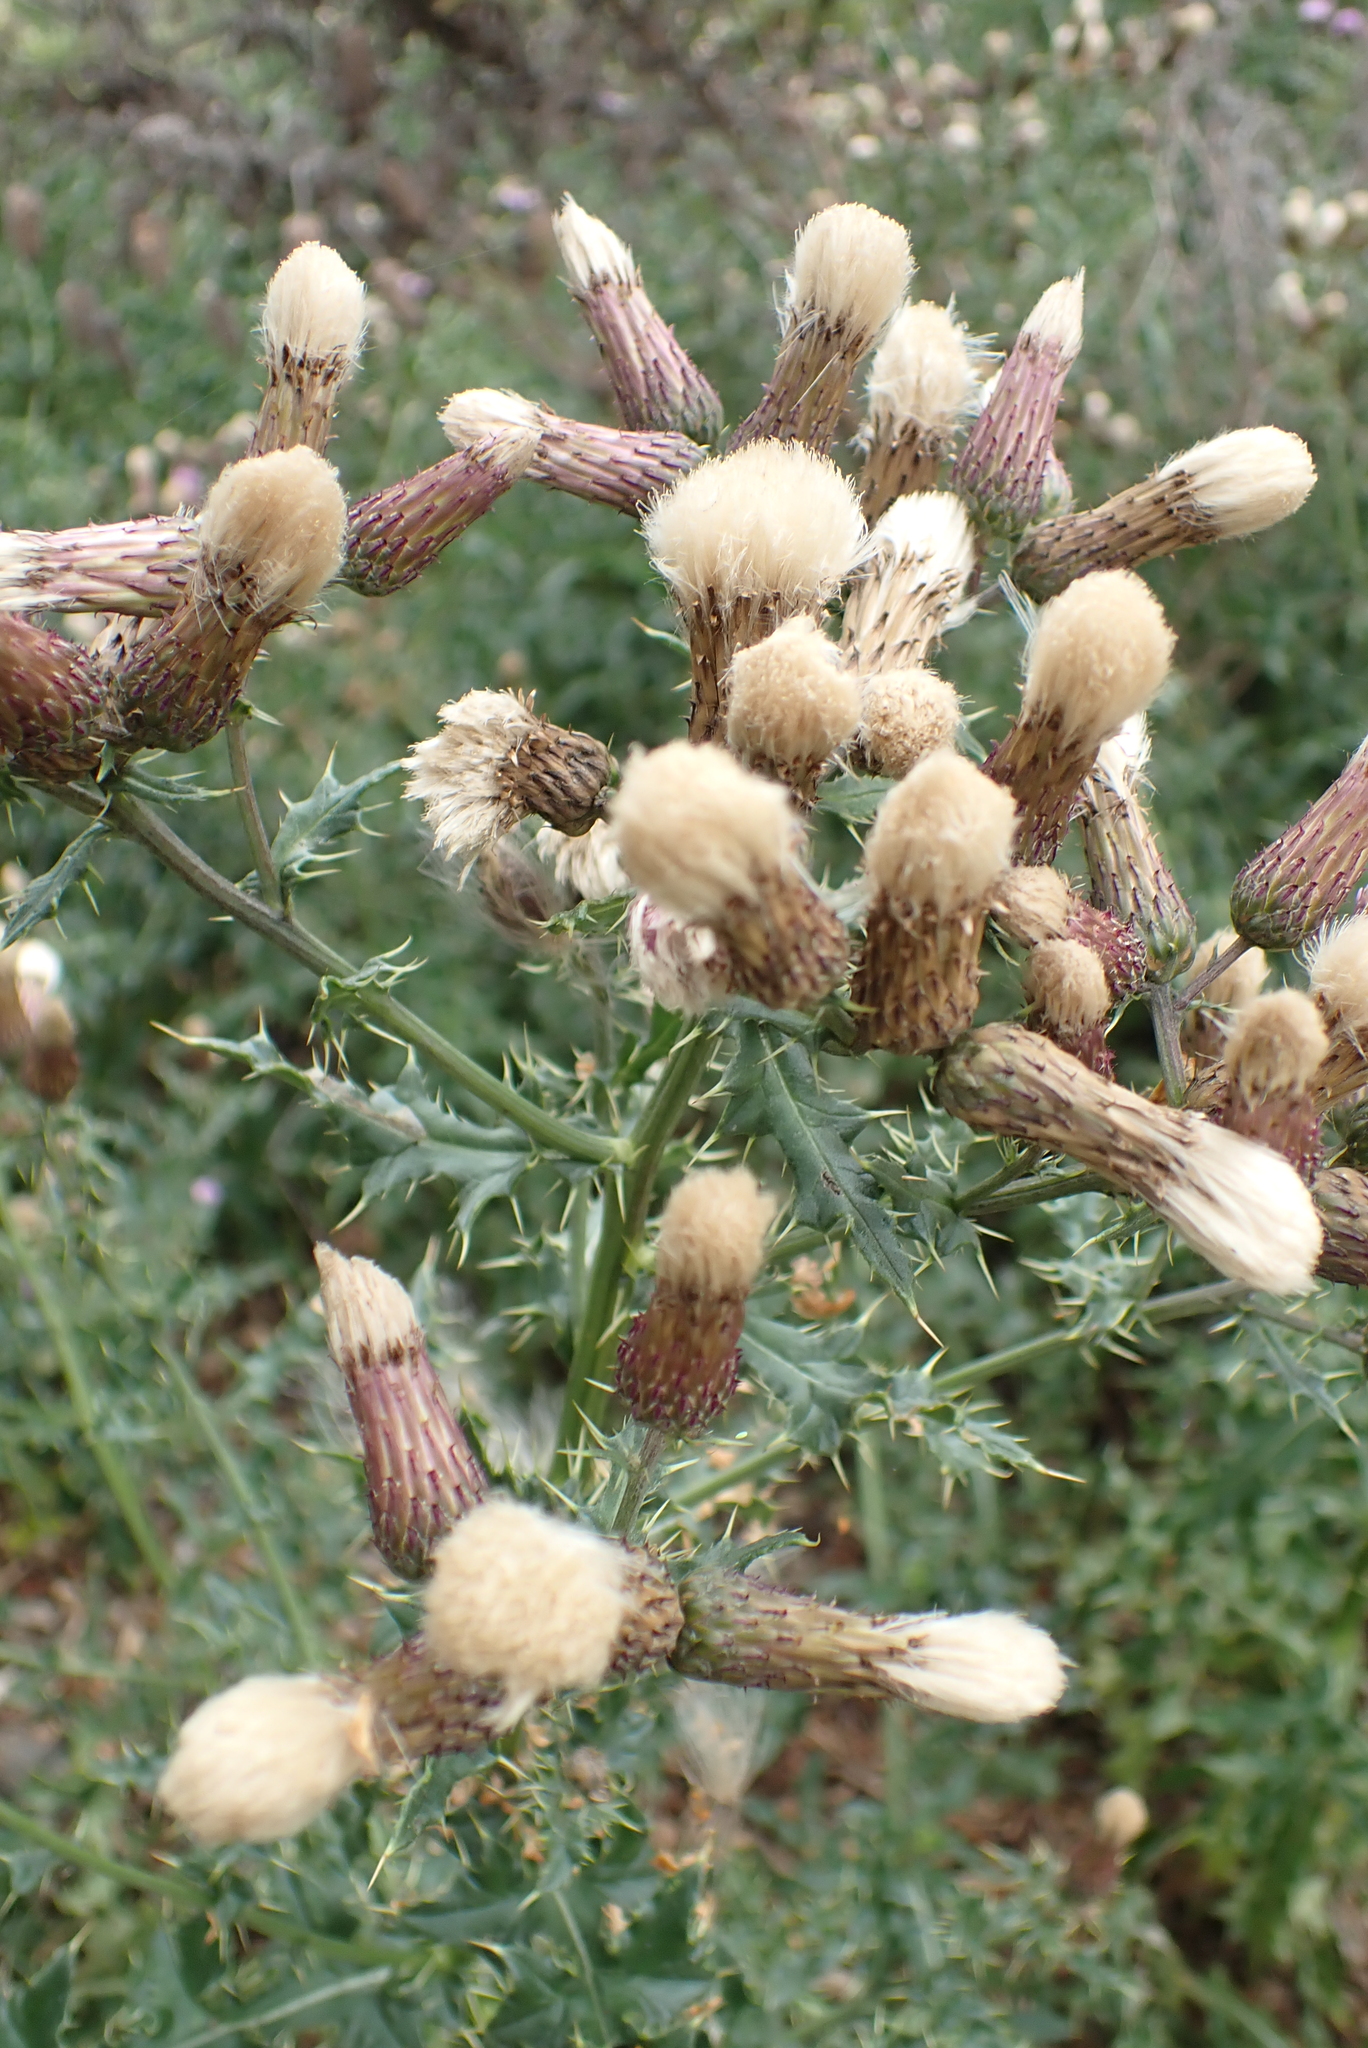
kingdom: Plantae
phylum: Tracheophyta
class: Magnoliopsida
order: Asterales
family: Asteraceae
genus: Cirsium
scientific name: Cirsium arvense
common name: Creeping thistle
